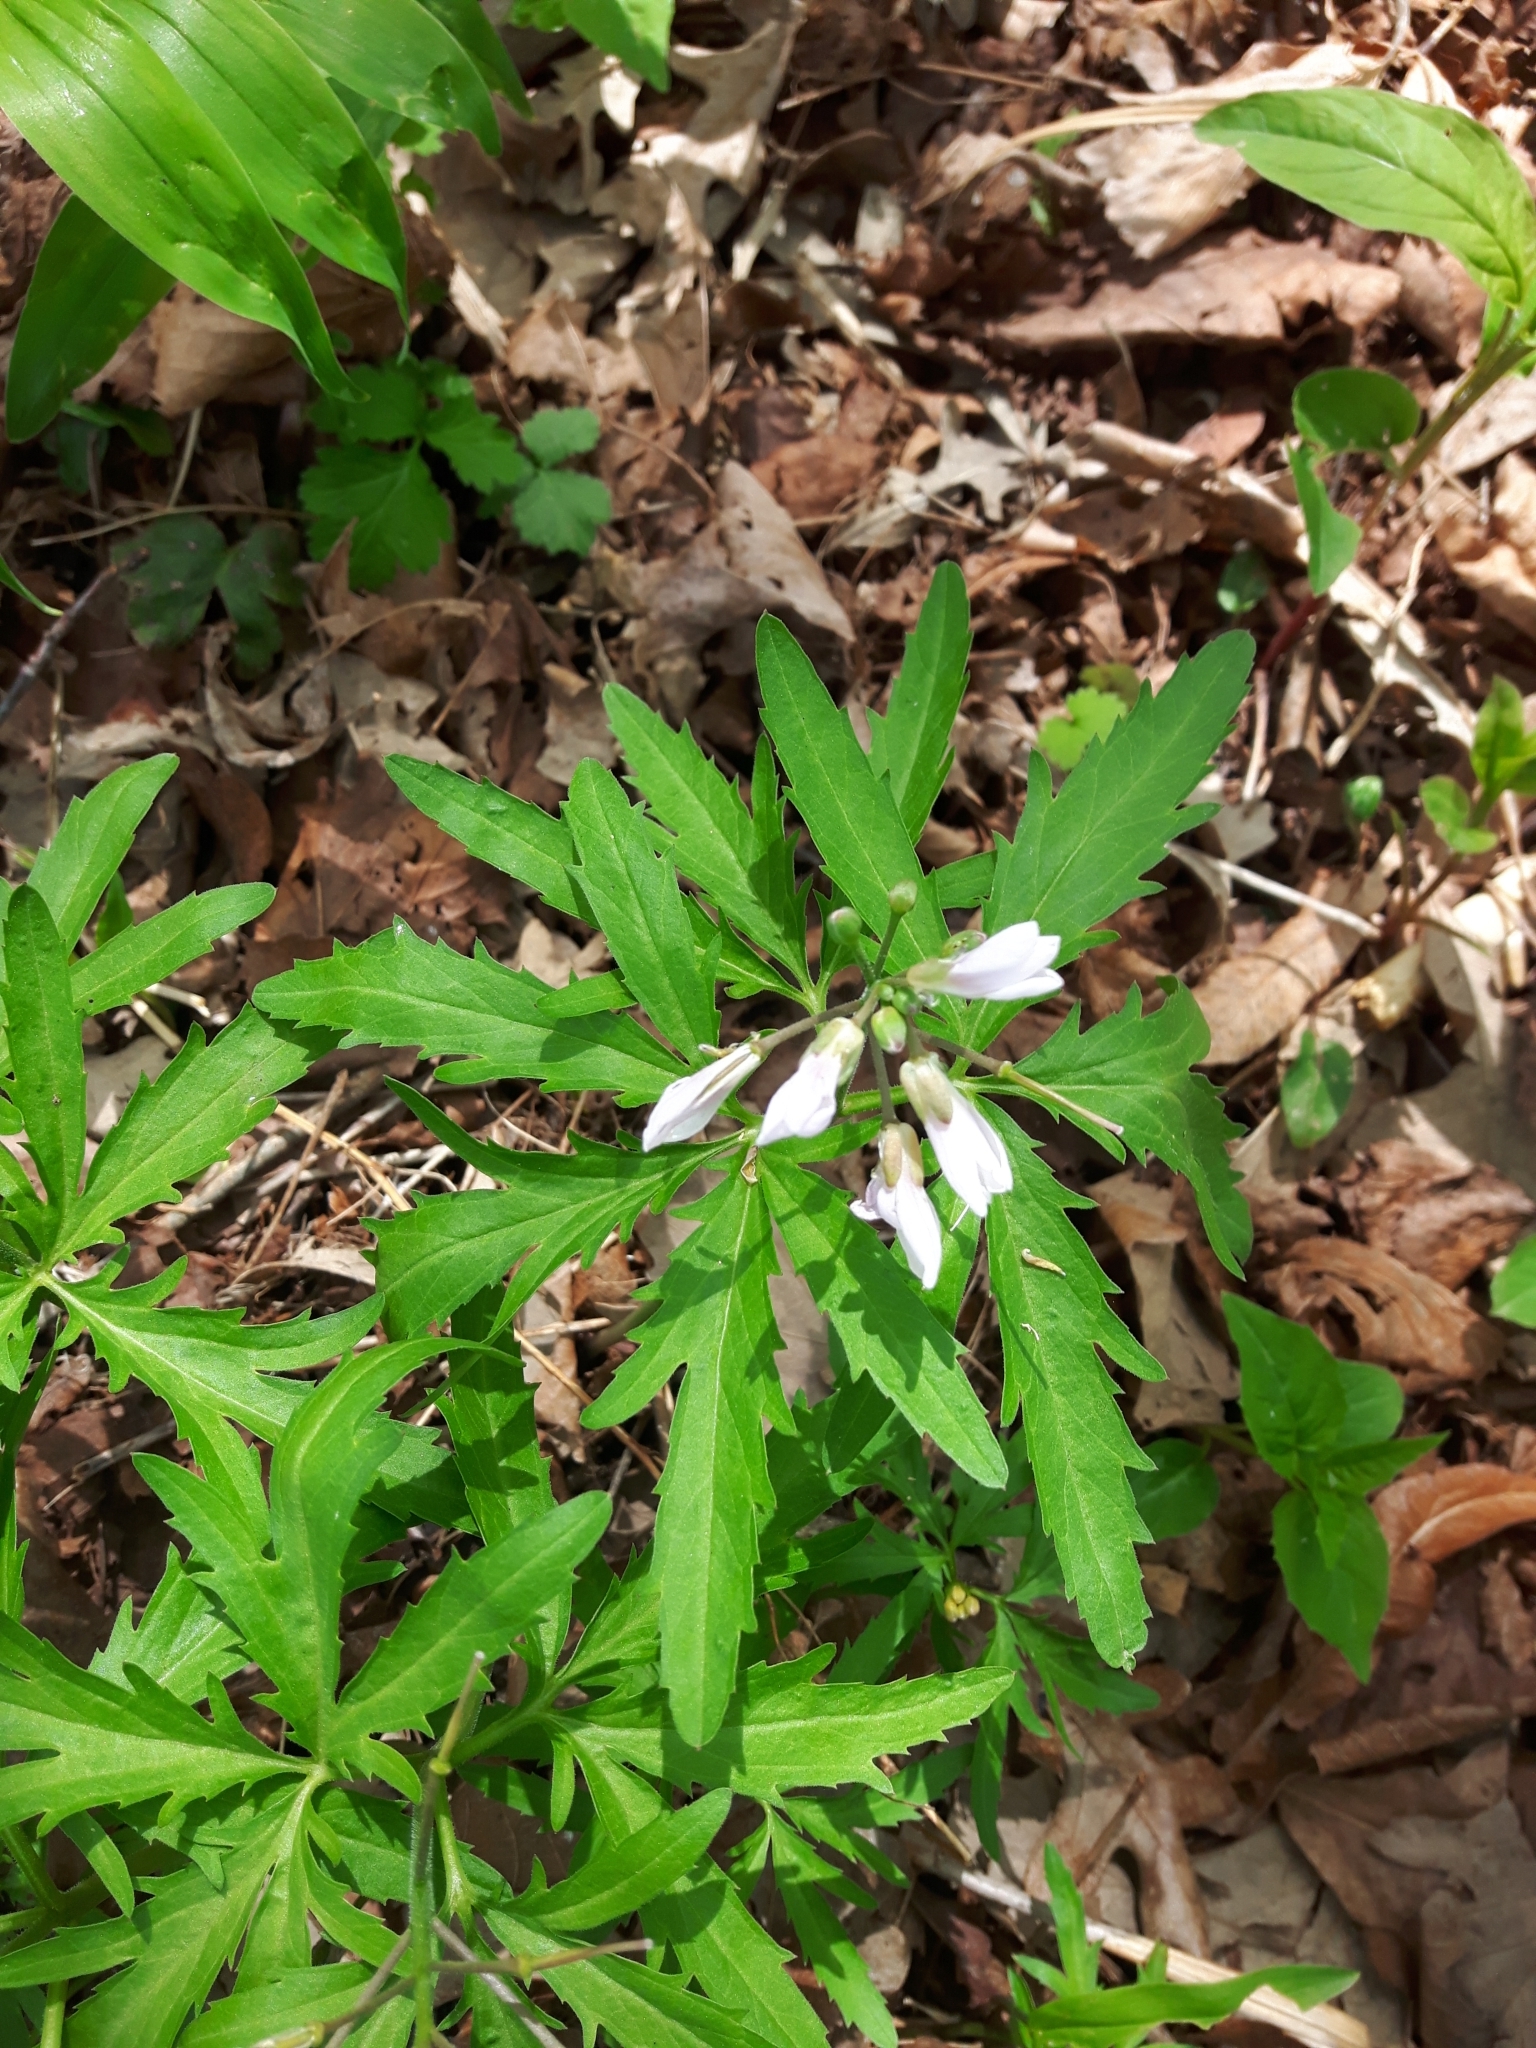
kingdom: Plantae
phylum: Tracheophyta
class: Magnoliopsida
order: Brassicales
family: Brassicaceae
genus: Cardamine
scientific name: Cardamine concatenata
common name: Cut-leaf toothcup
